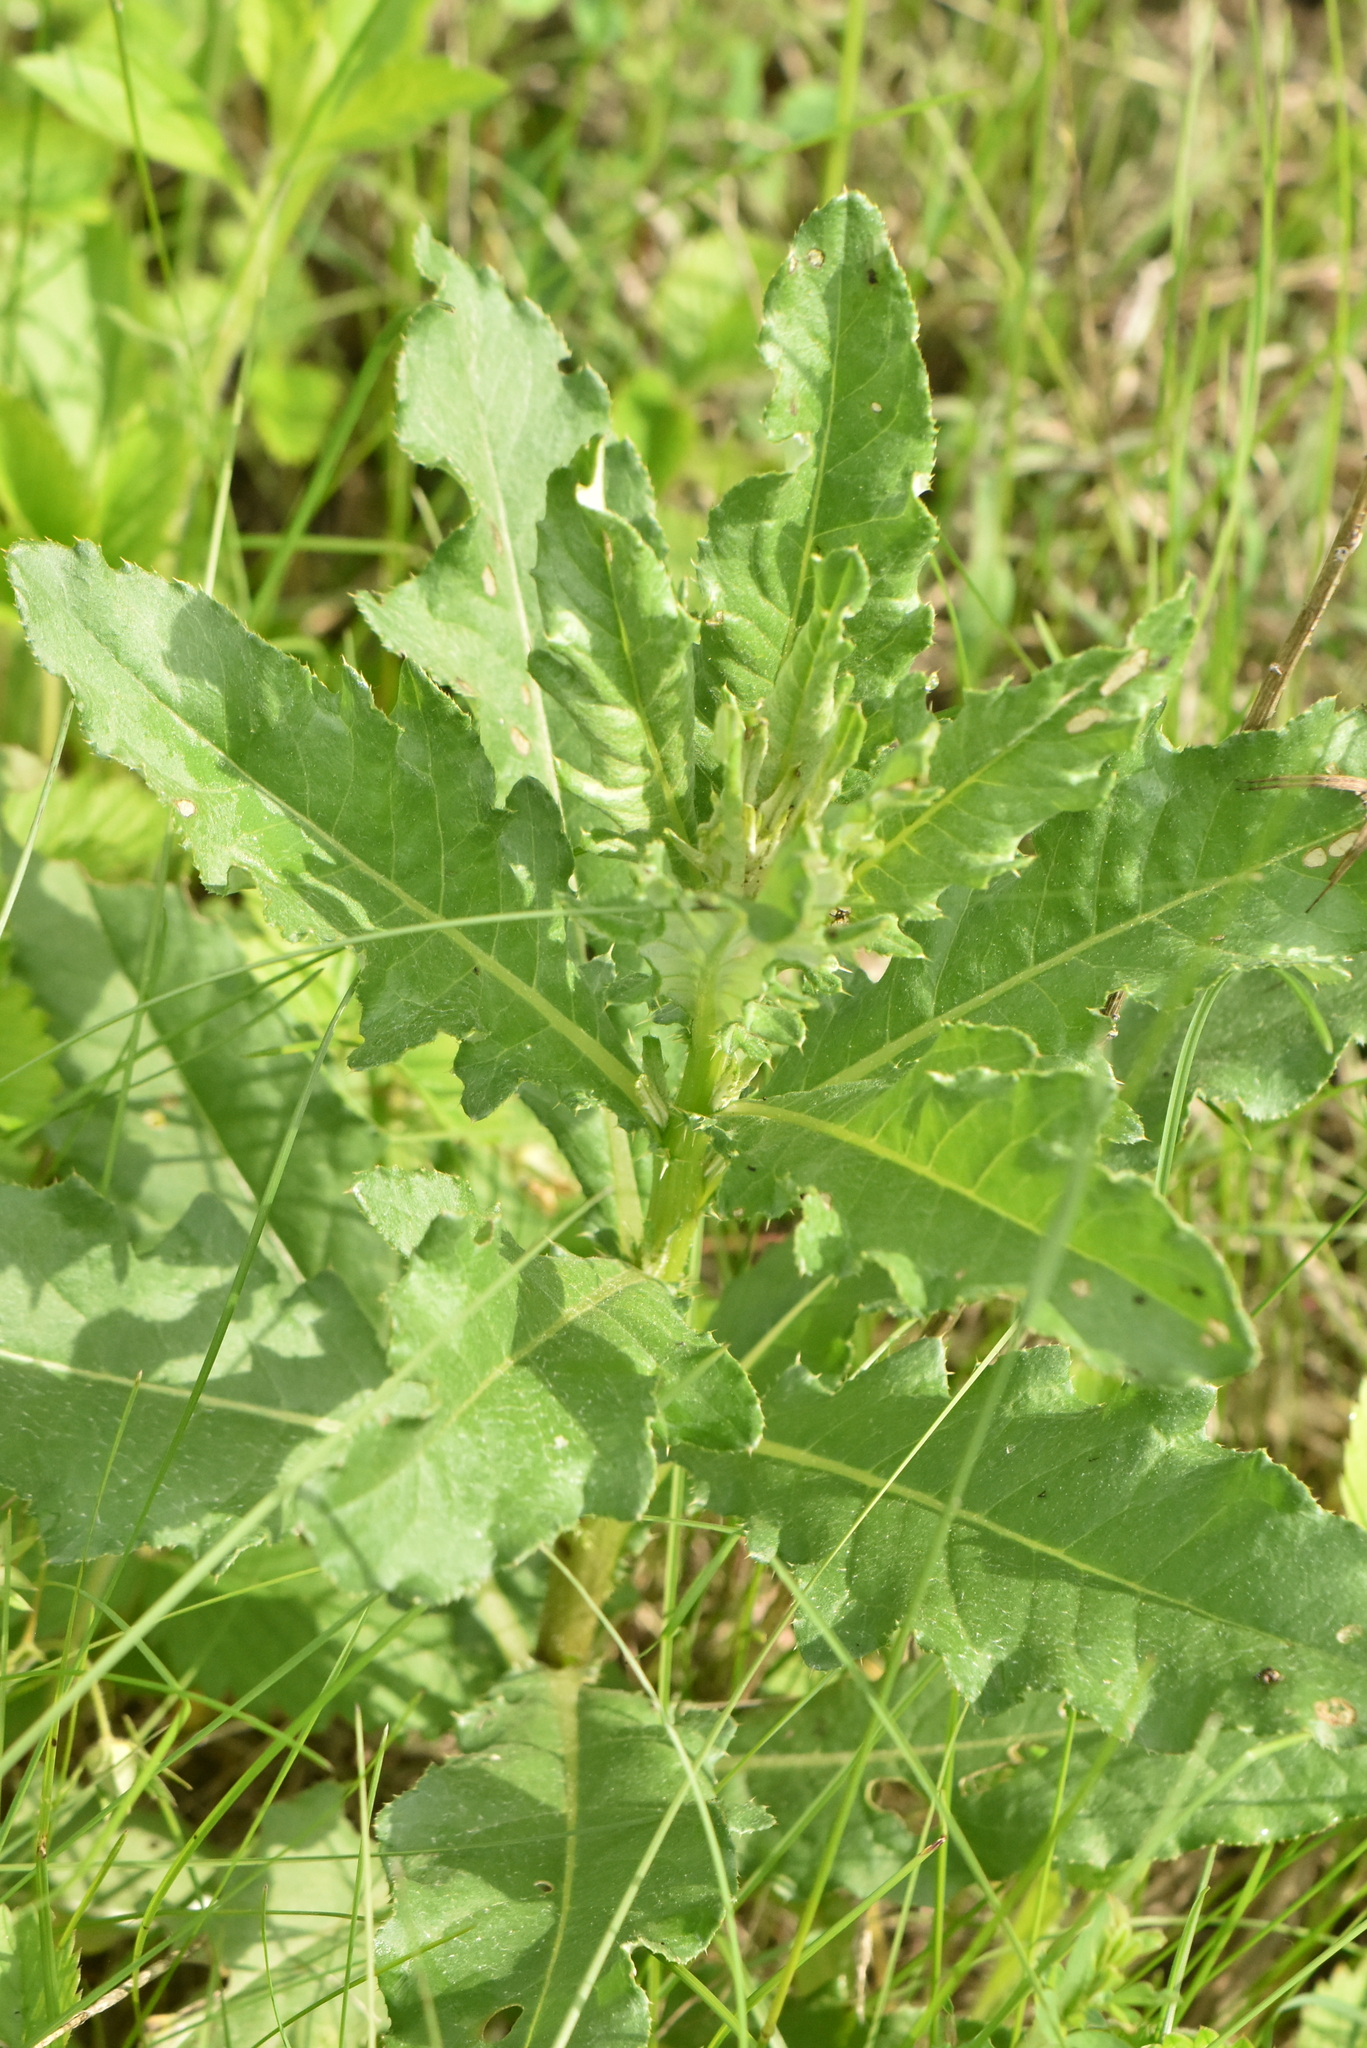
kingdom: Plantae
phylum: Tracheophyta
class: Magnoliopsida
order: Asterales
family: Asteraceae
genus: Cirsium
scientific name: Cirsium arvense
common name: Creeping thistle
